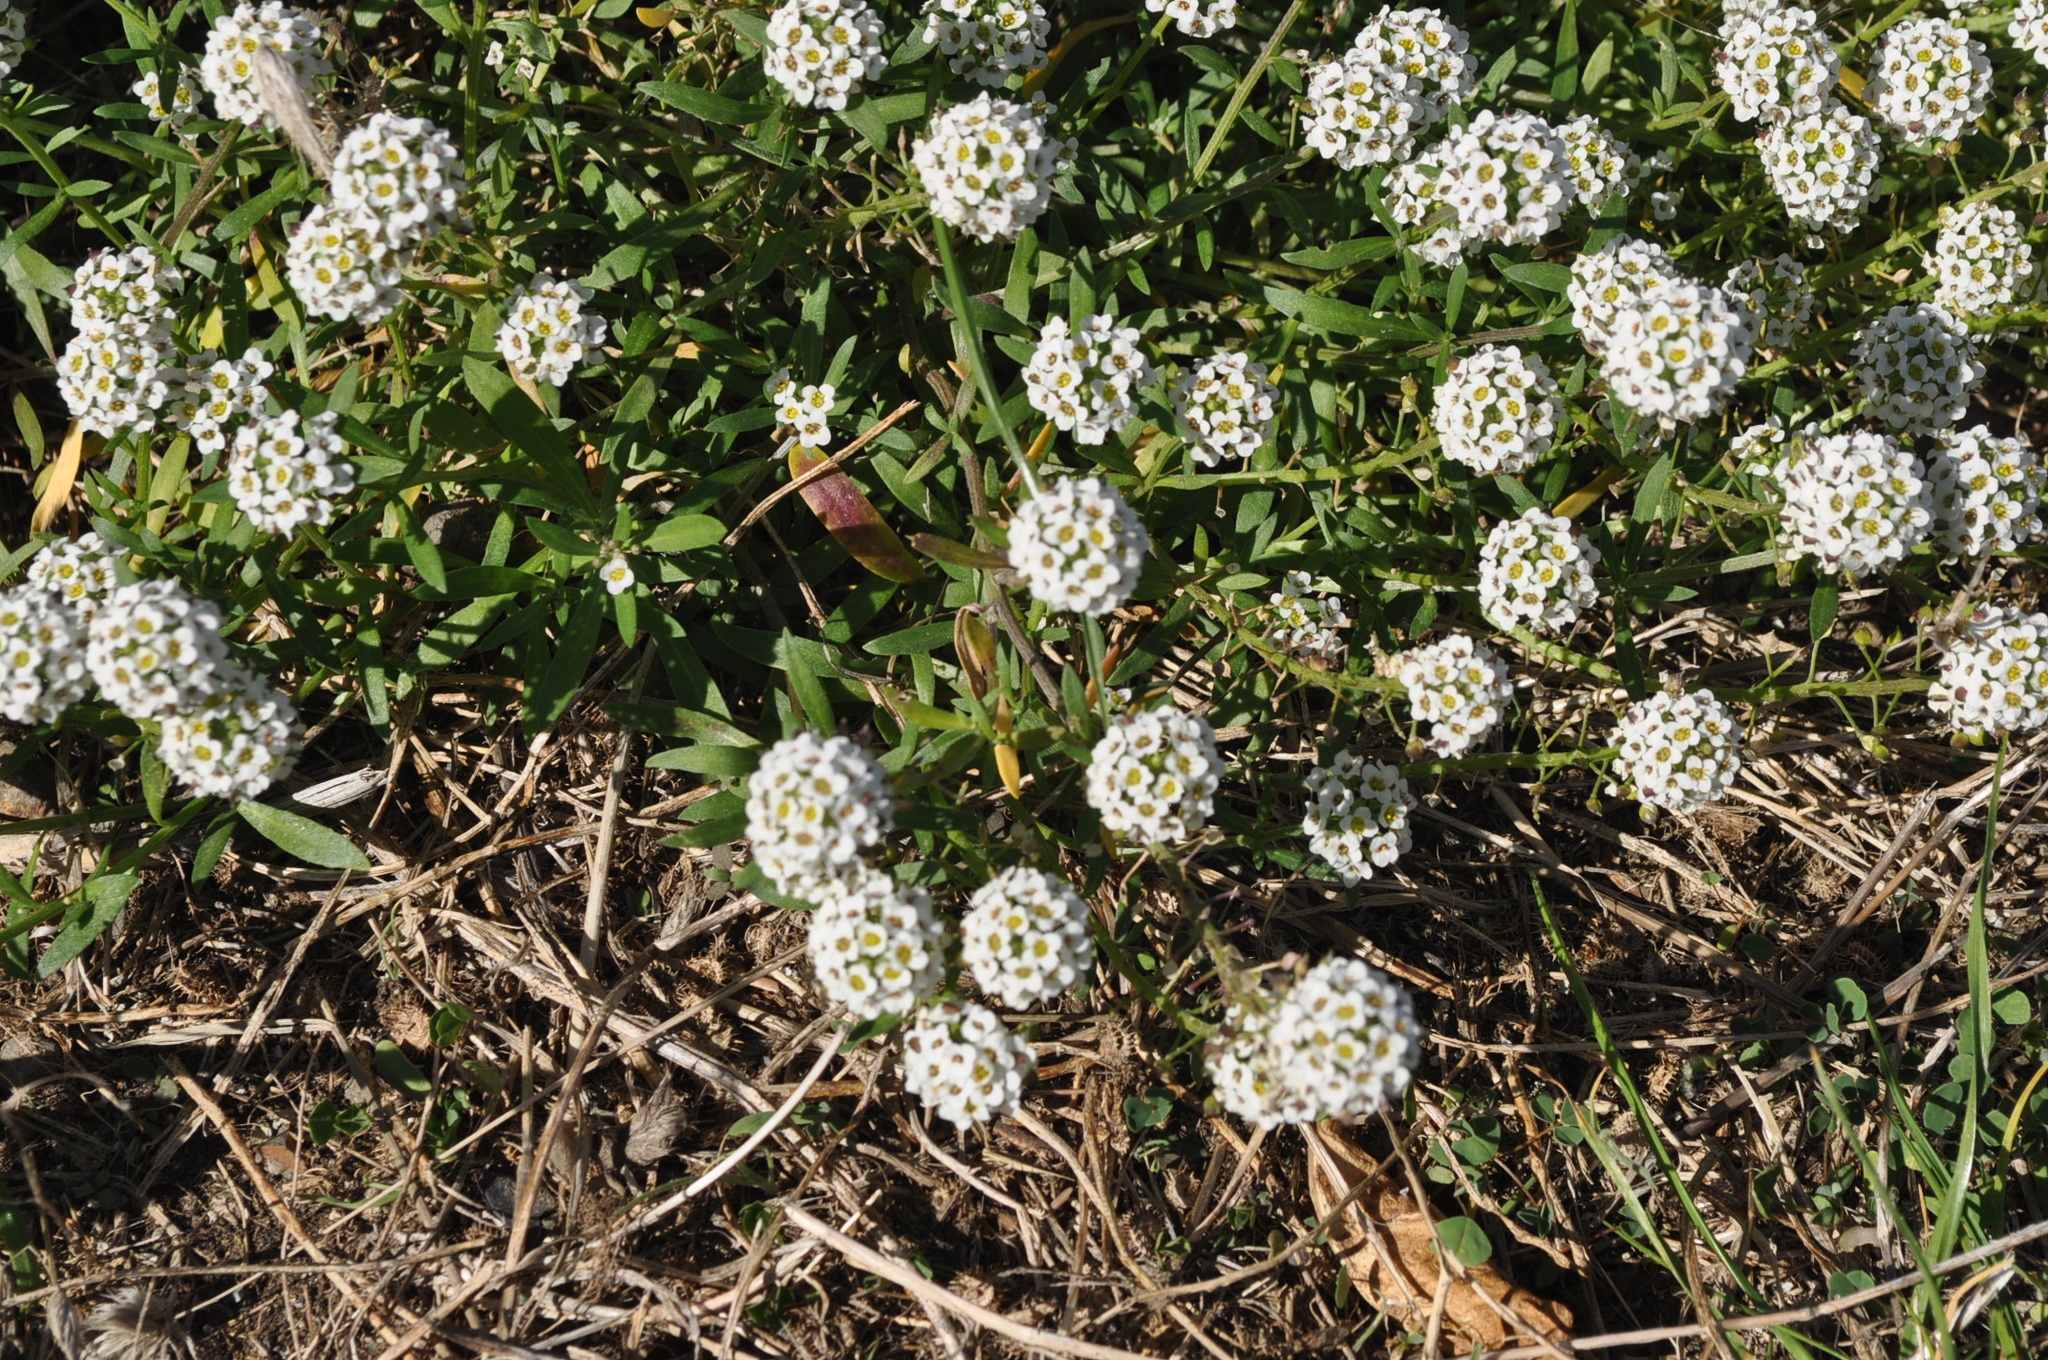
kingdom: Plantae
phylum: Tracheophyta
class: Magnoliopsida
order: Brassicales
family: Brassicaceae
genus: Lobularia
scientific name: Lobularia maritima
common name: Sweet alison
